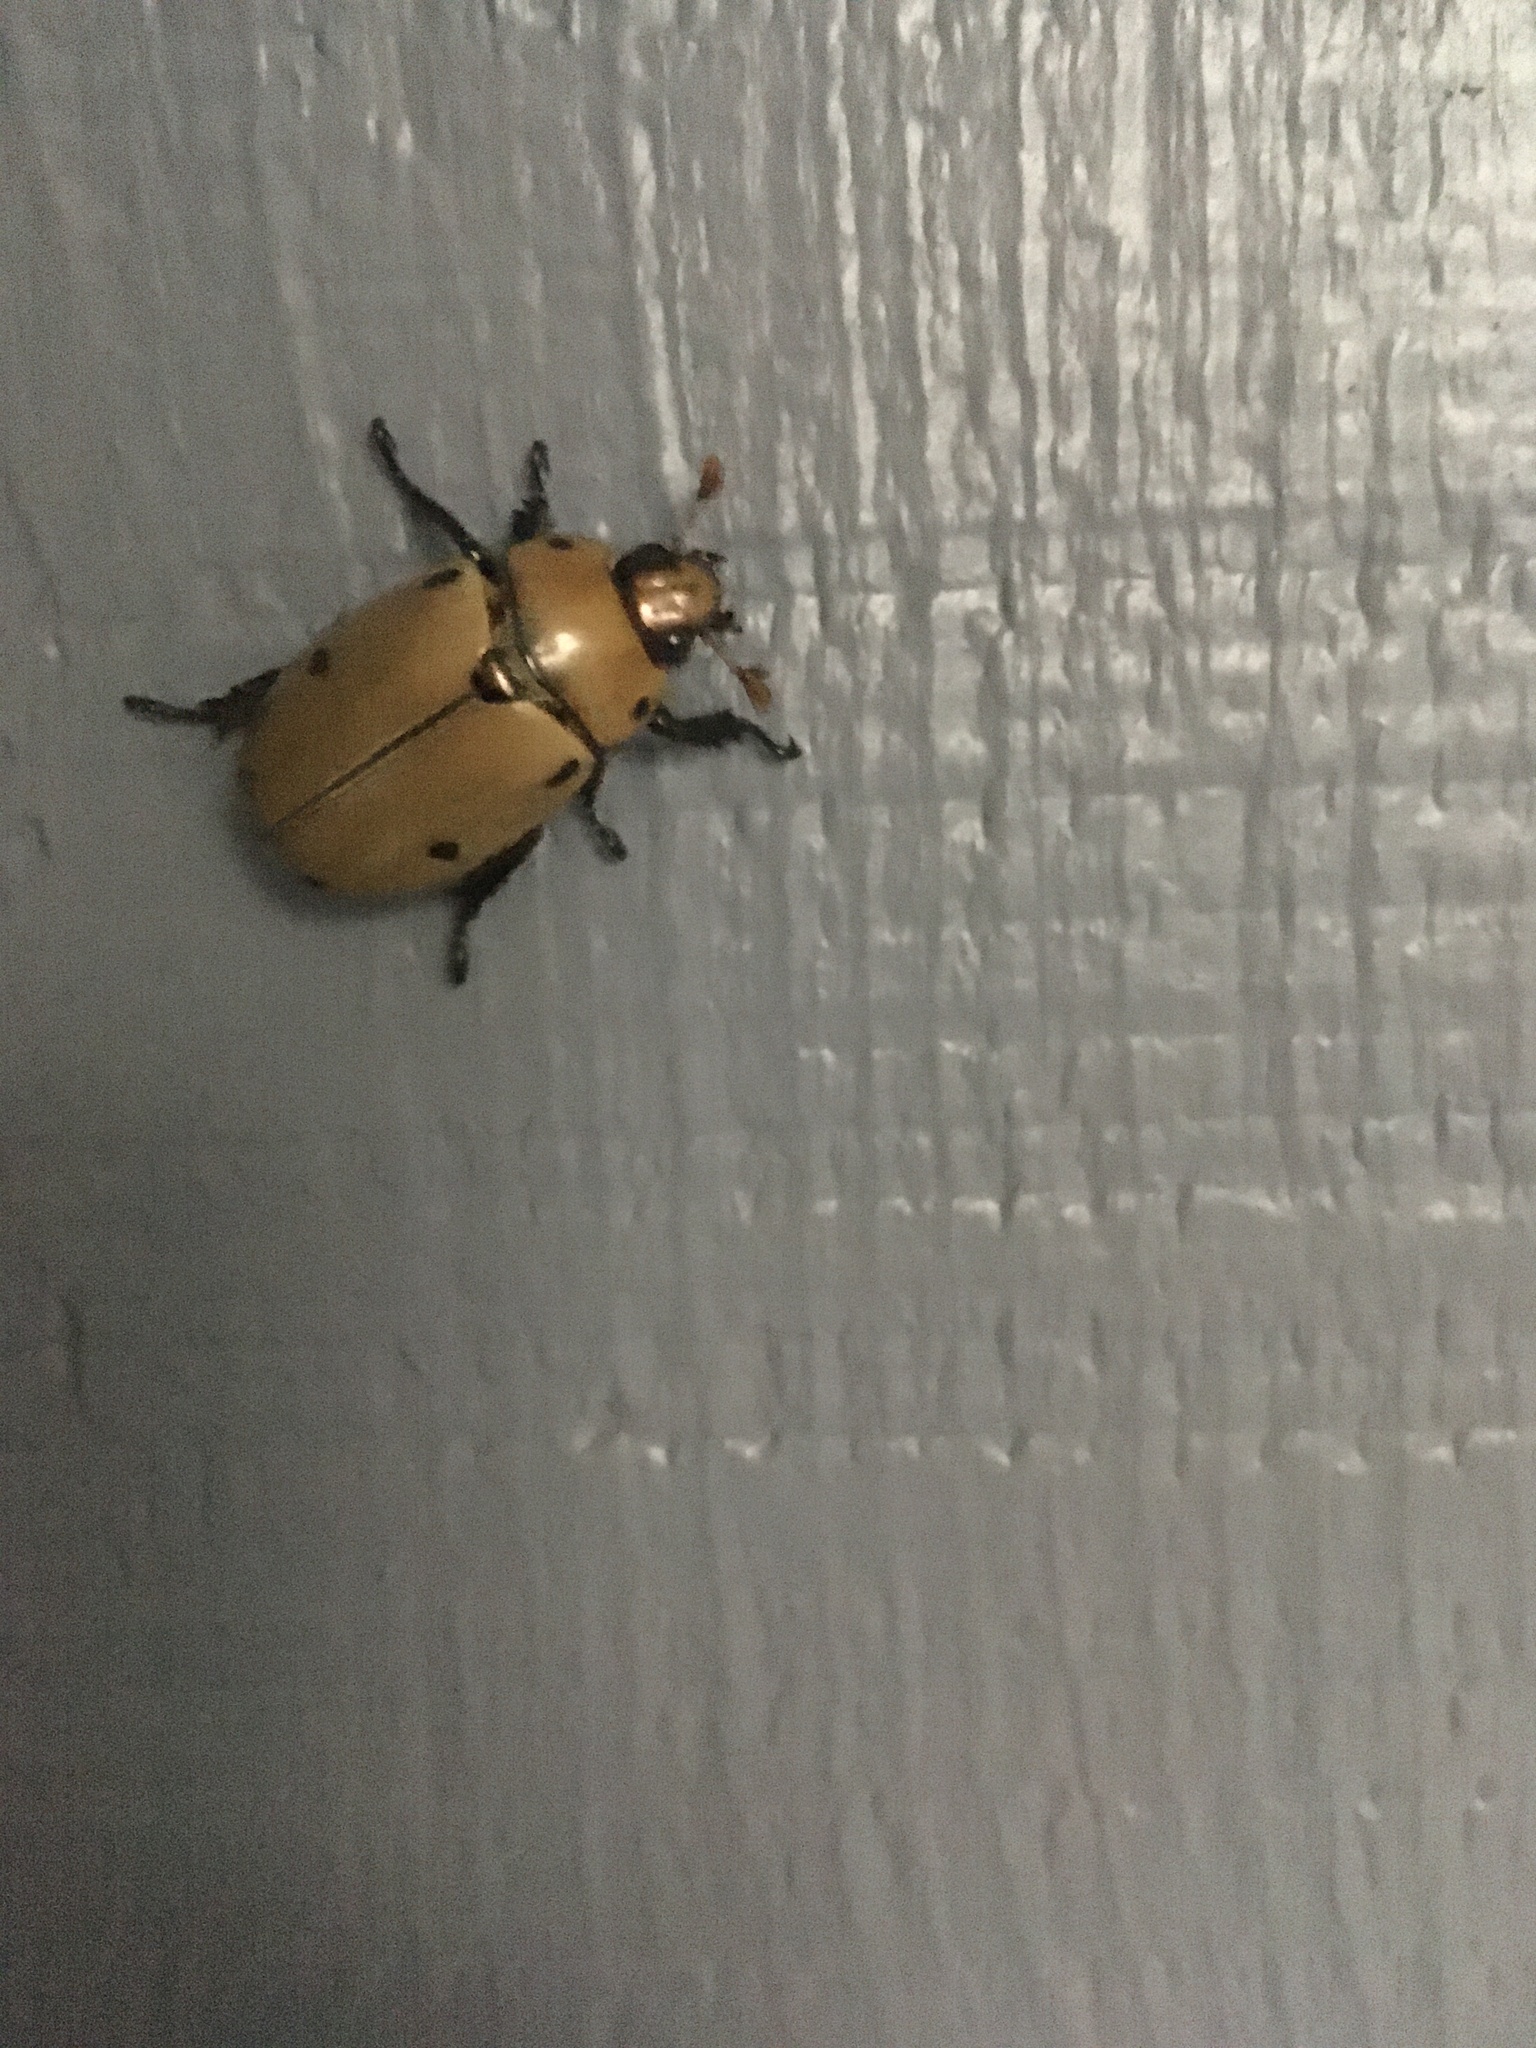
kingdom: Animalia
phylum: Arthropoda
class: Insecta
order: Coleoptera
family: Scarabaeidae
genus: Pelidnota
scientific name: Pelidnota punctata
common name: Grapevine beetle
